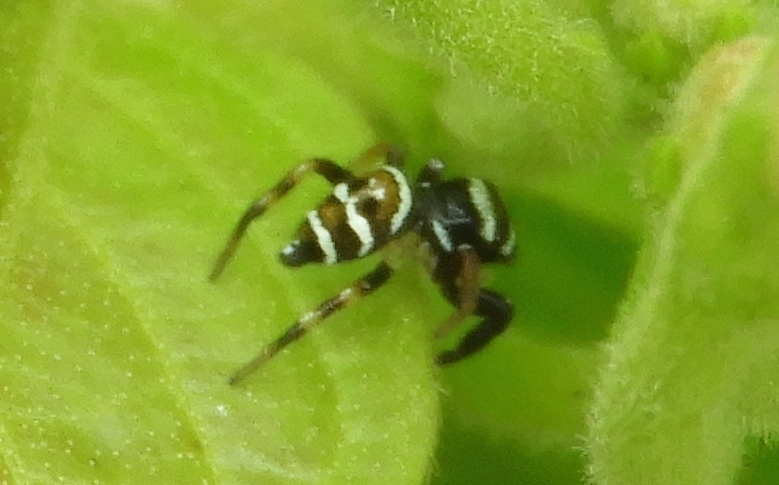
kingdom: Animalia
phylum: Arthropoda
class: Arachnida
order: Araneae
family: Salticidae
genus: Sassacus
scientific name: Sassacus
